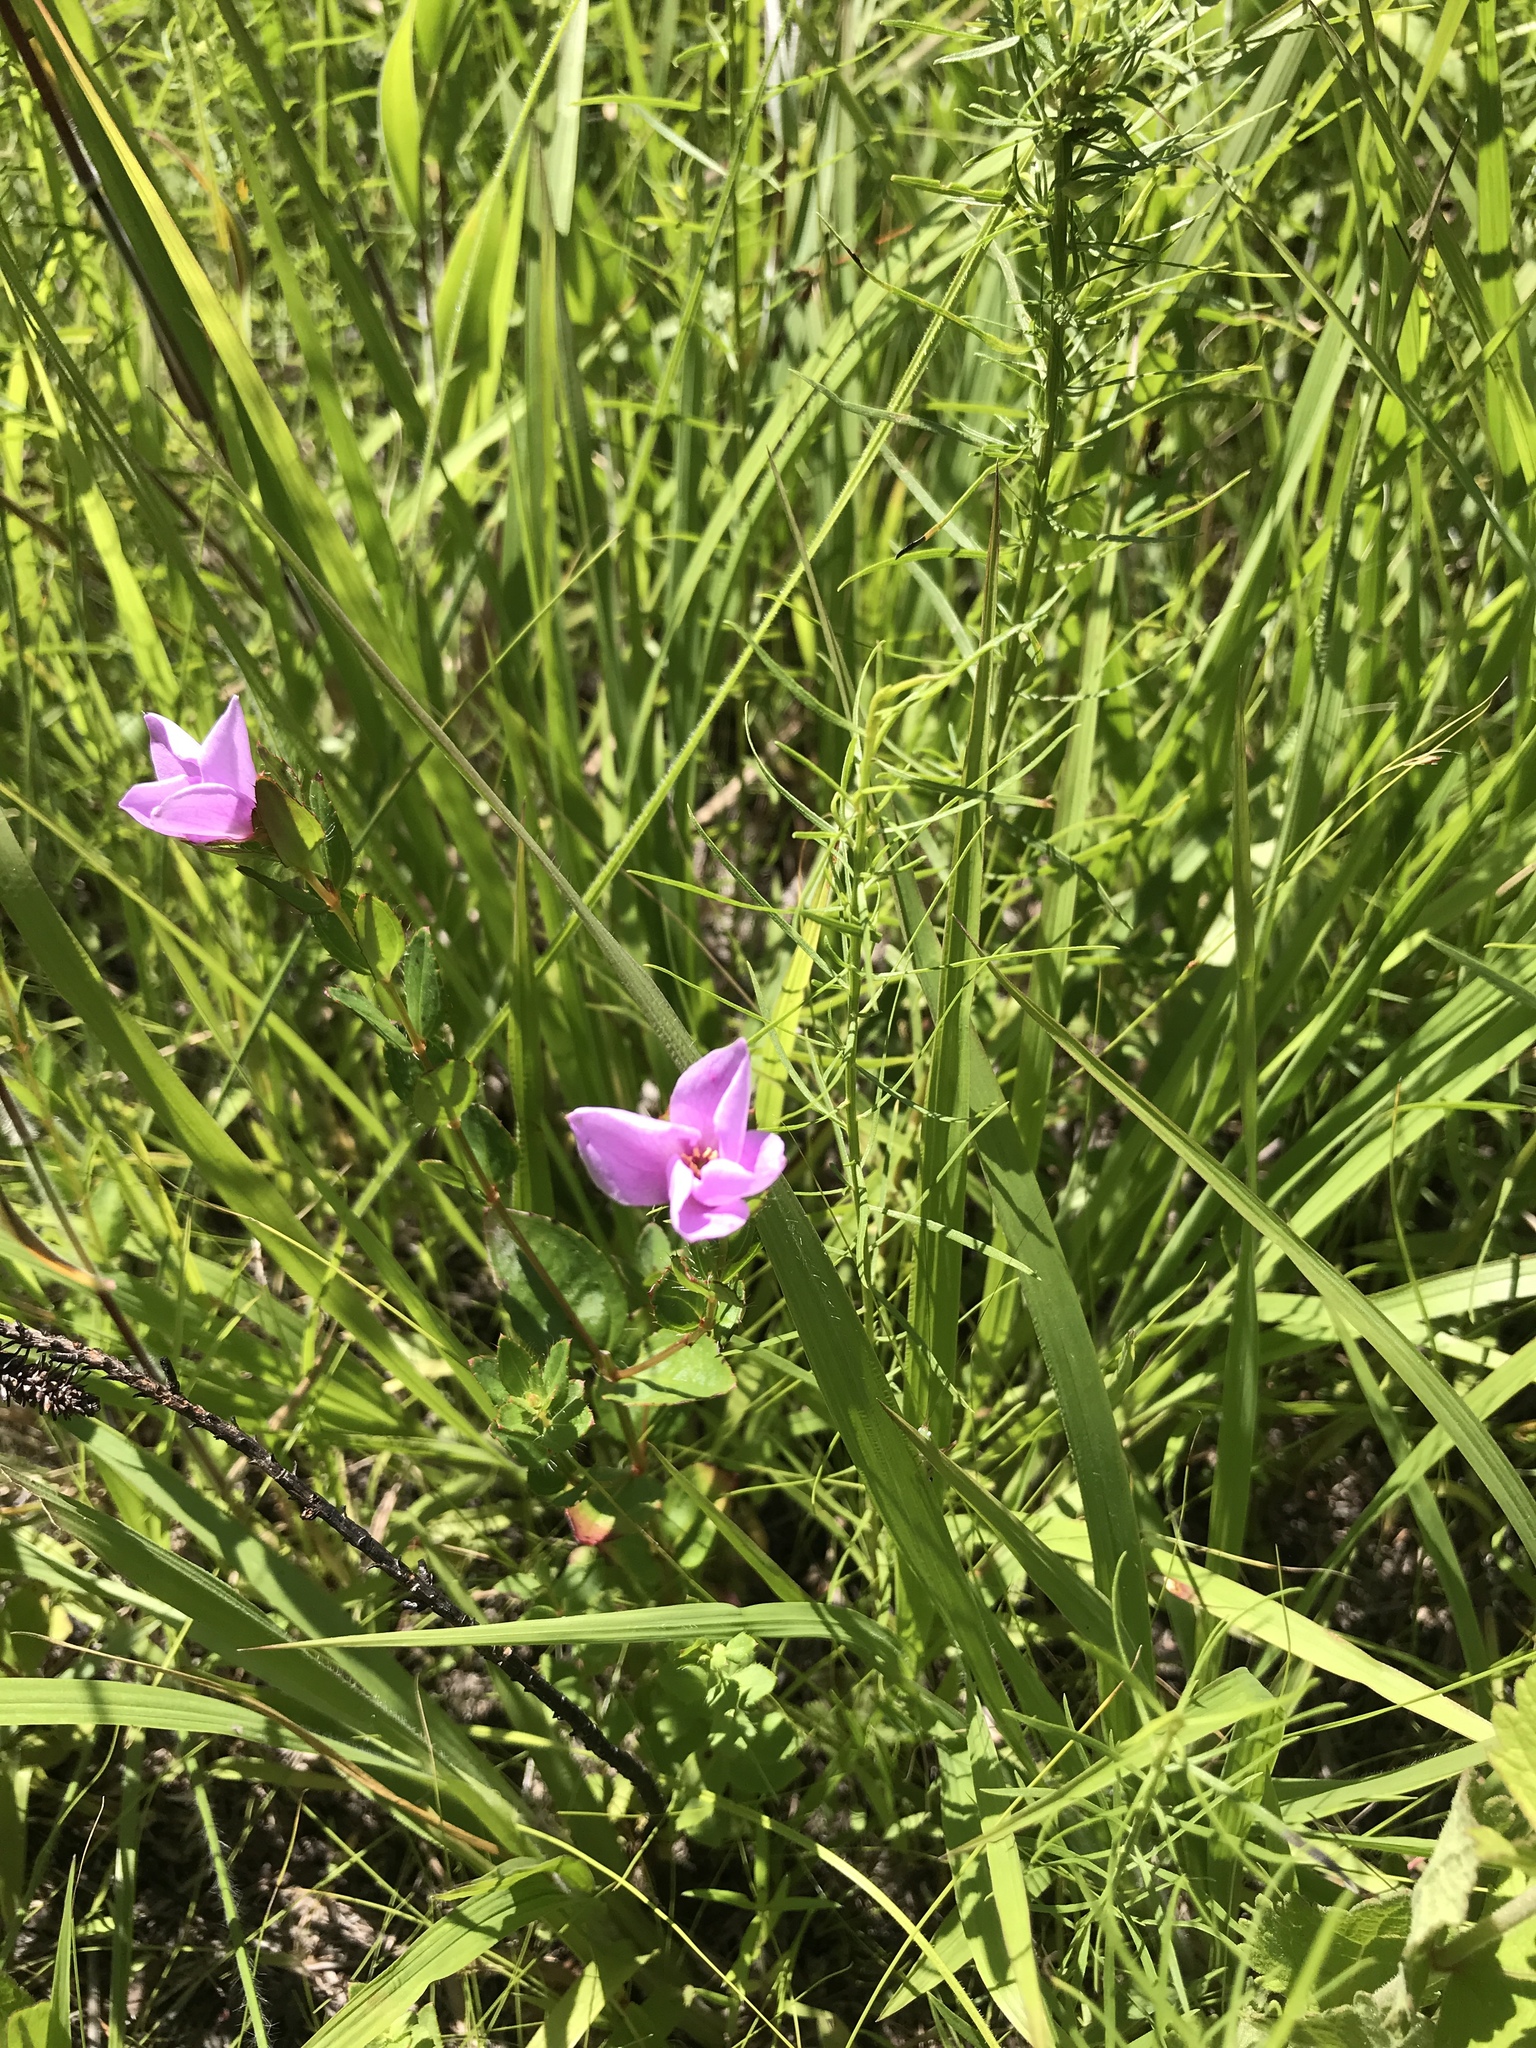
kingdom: Plantae
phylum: Tracheophyta
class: Magnoliopsida
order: Myrtales
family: Melastomataceae
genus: Rhexia
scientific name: Rhexia petiolata
